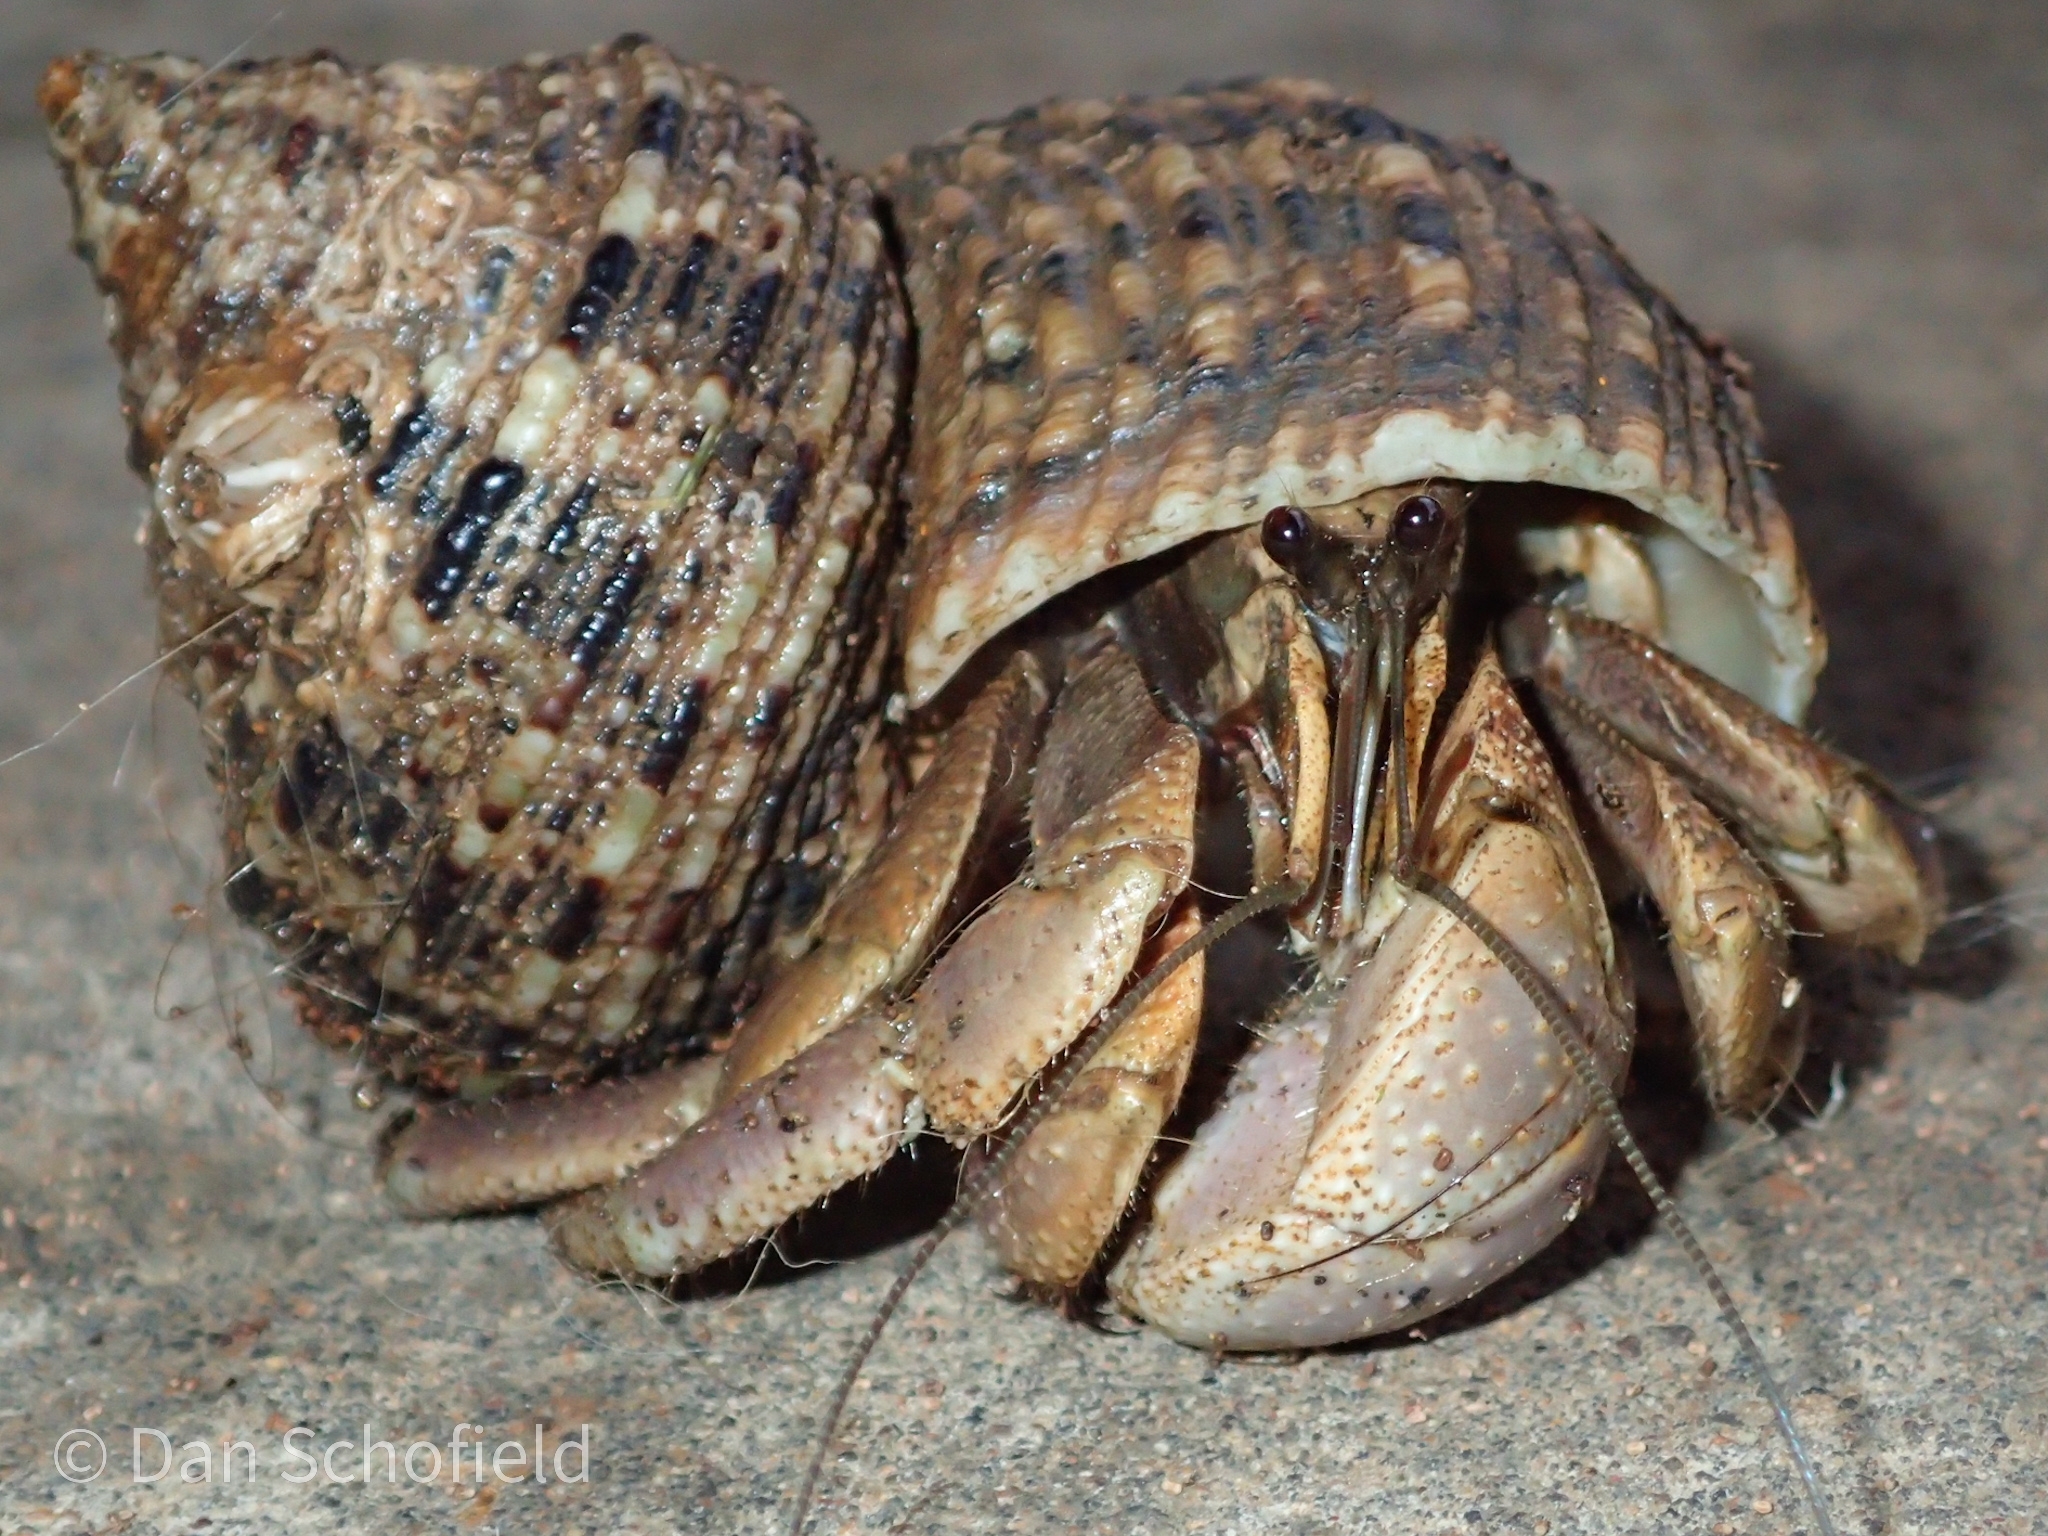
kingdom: Animalia
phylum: Arthropoda
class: Malacostraca
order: Decapoda
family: Coenobitidae
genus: Coenobita
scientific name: Coenobita brevimanus
